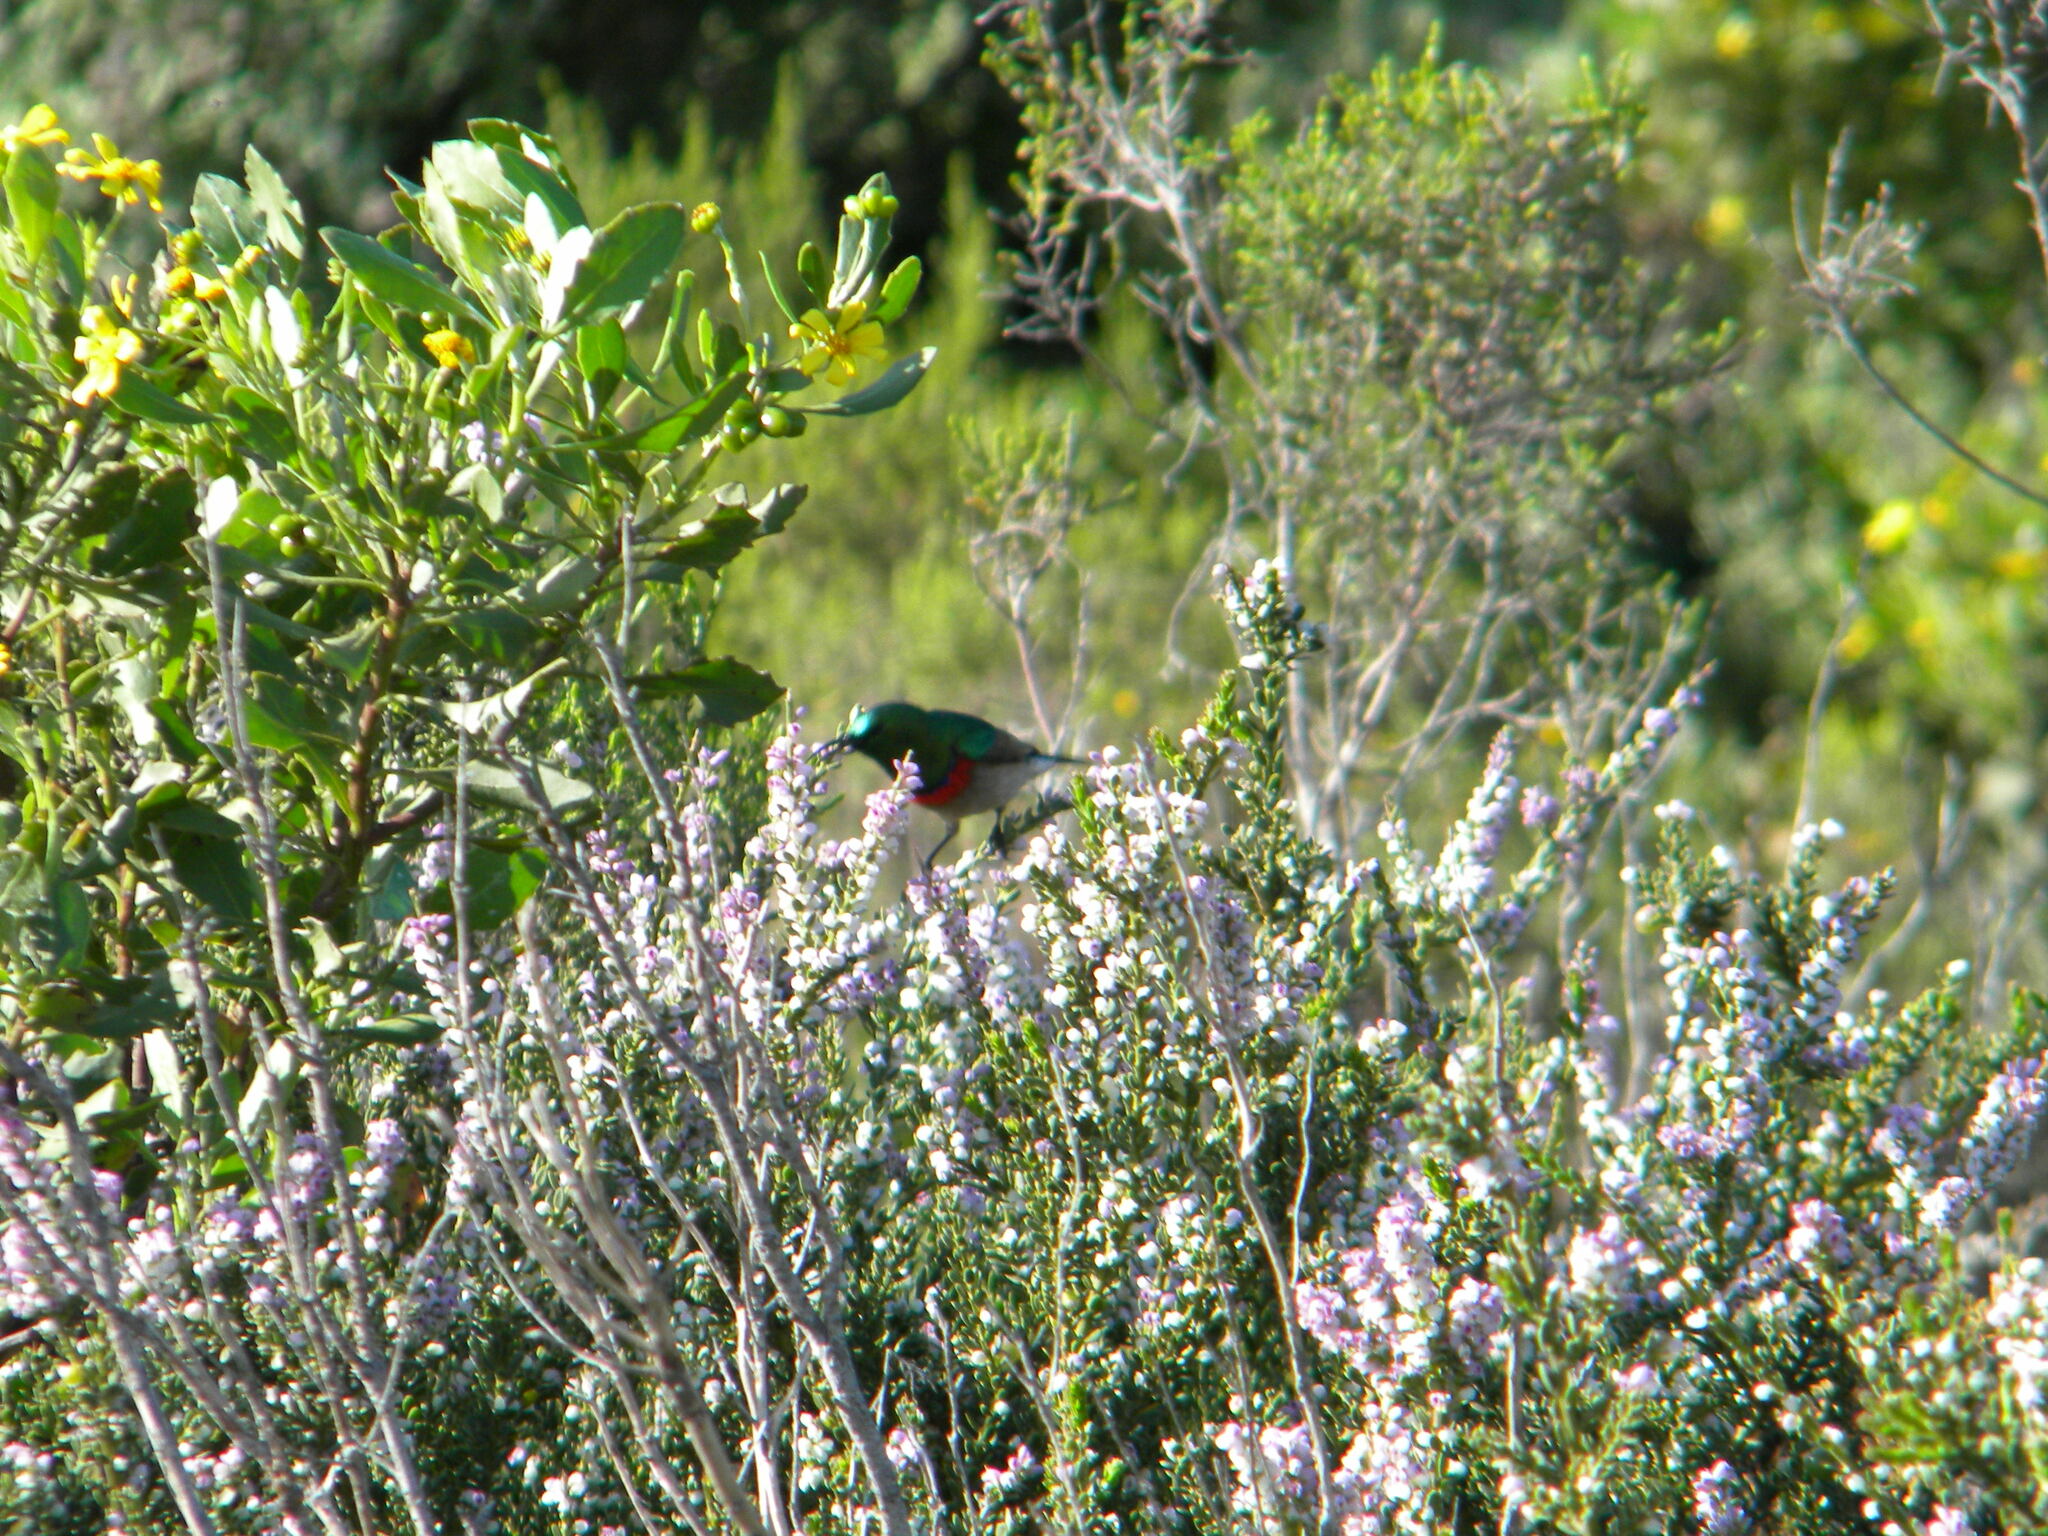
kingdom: Animalia
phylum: Chordata
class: Aves
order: Passeriformes
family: Nectariniidae
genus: Cinnyris
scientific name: Cinnyris chalybeus
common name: Southern double-collared sunbird
